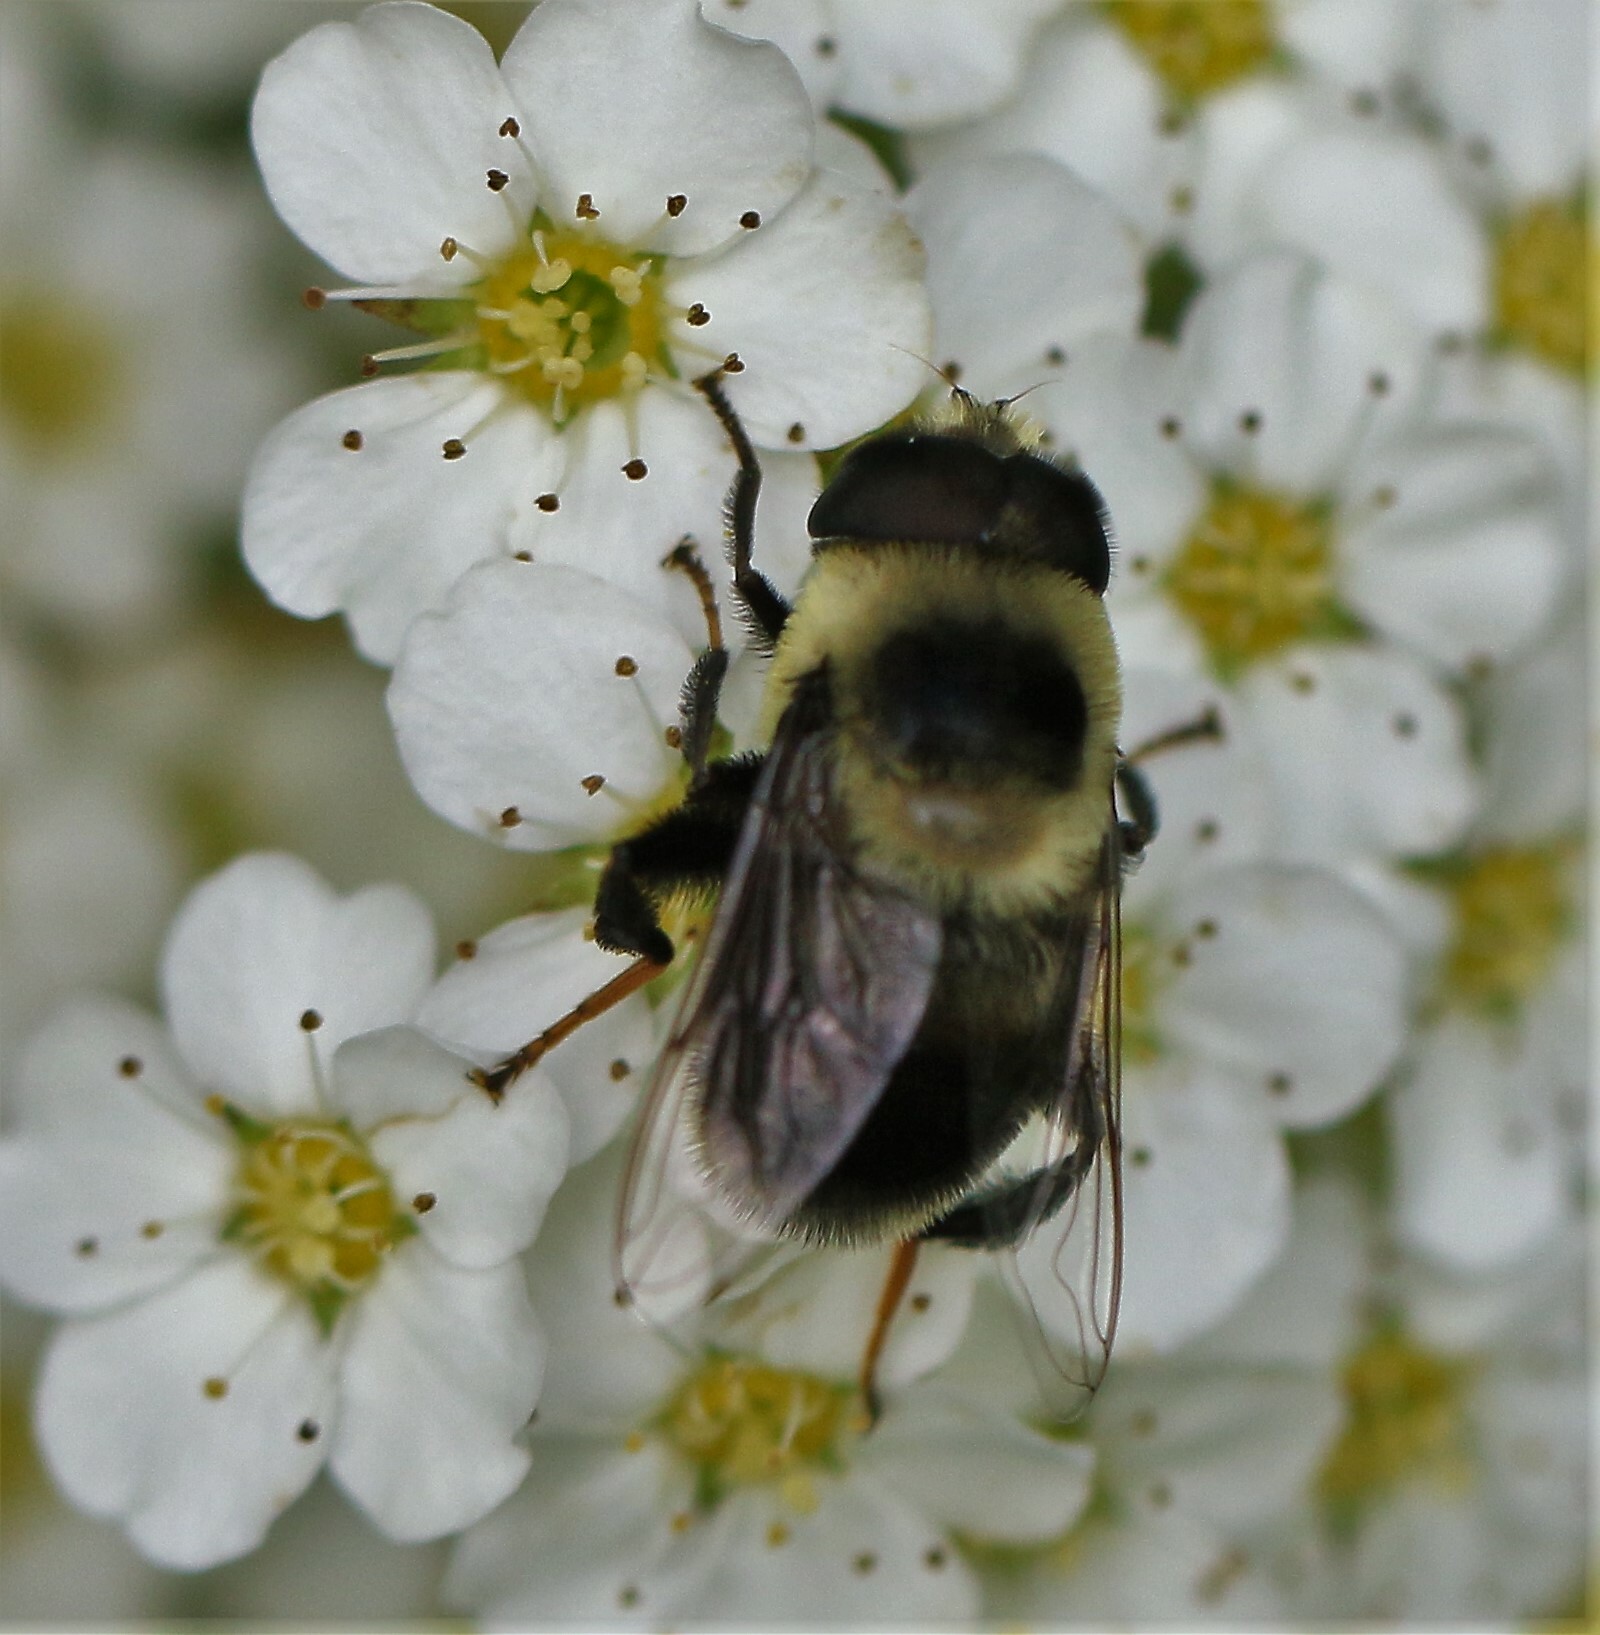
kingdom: Animalia
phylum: Arthropoda
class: Insecta
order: Diptera
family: Syrphidae
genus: Eristalis
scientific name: Eristalis anthophorina
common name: Orange-spotted drone fly
